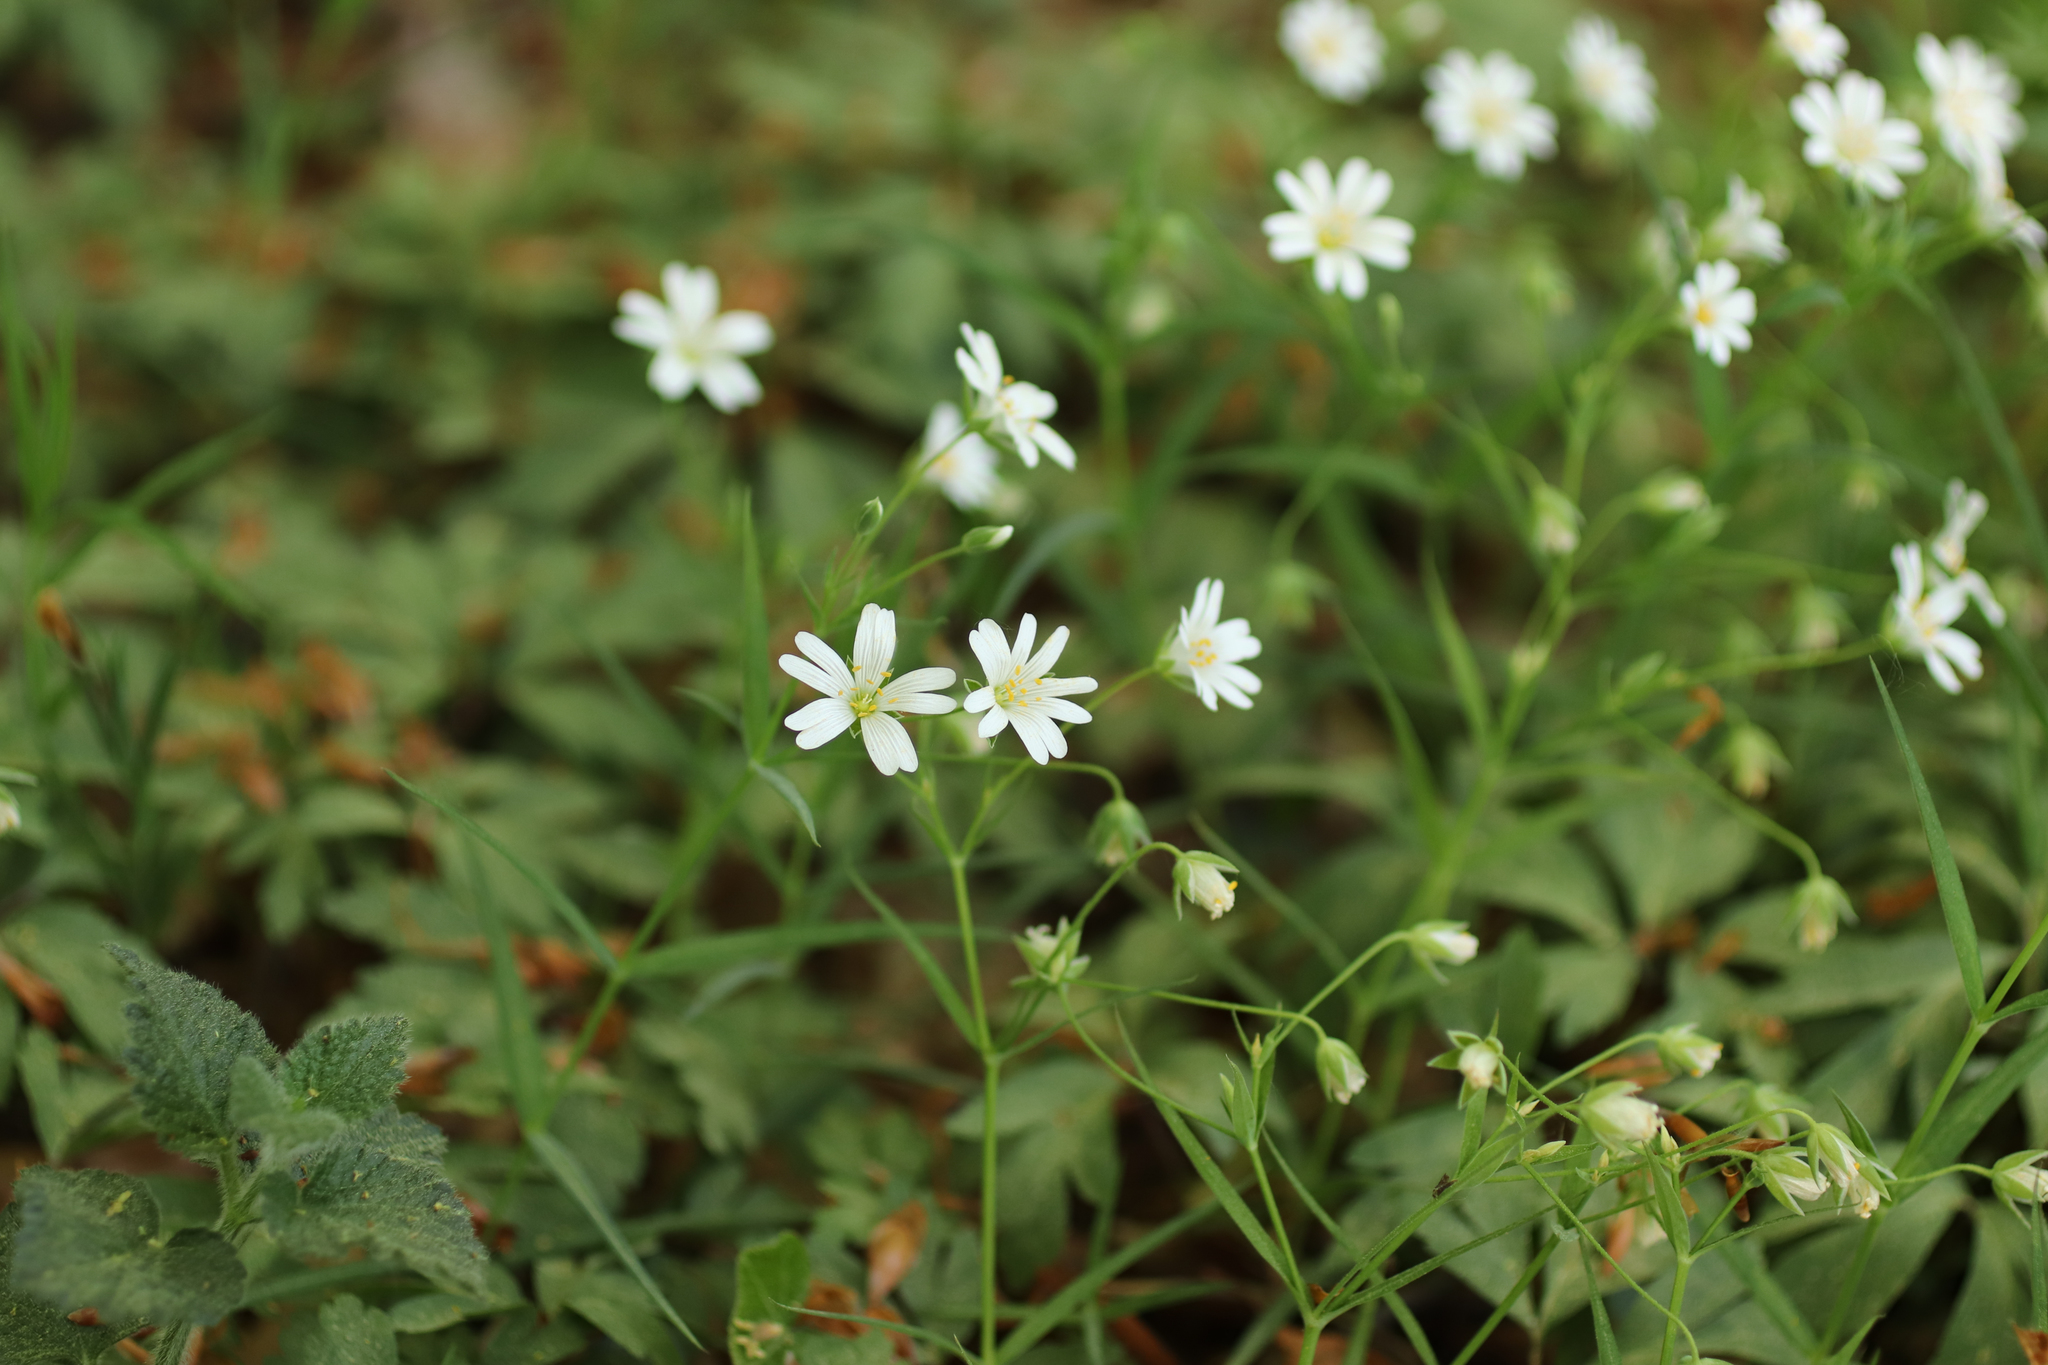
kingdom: Plantae
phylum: Tracheophyta
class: Magnoliopsida
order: Caryophyllales
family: Caryophyllaceae
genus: Rabelera
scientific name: Rabelera holostea
